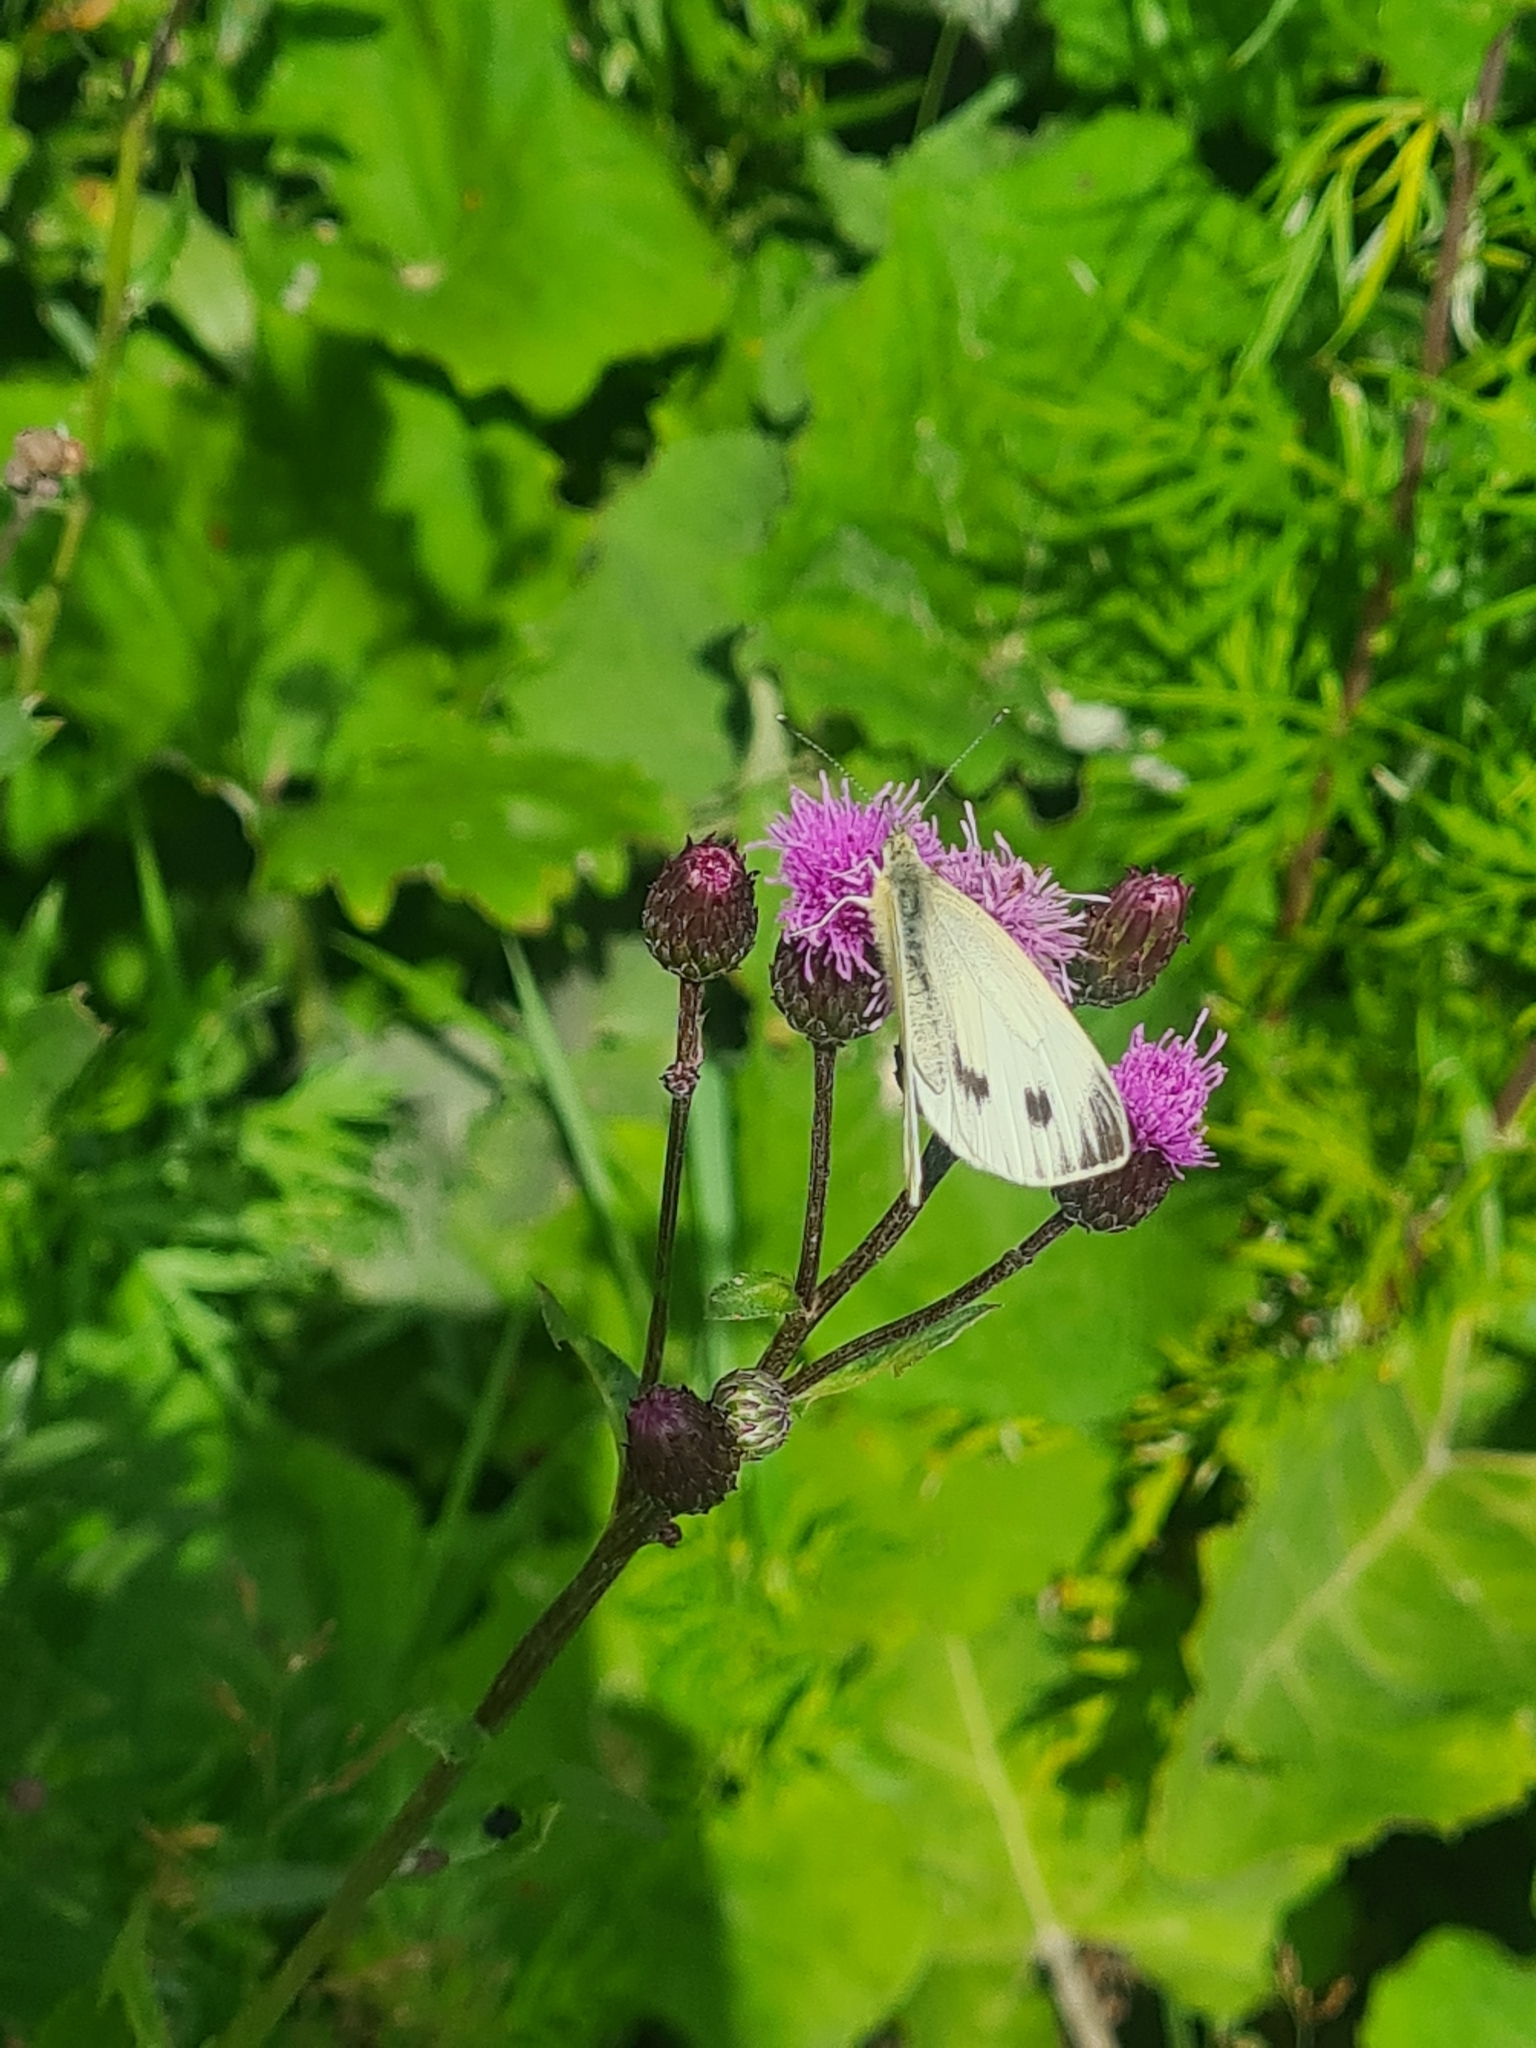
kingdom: Animalia
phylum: Arthropoda
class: Insecta
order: Lepidoptera
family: Pieridae
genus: Pieris
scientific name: Pieris napi
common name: Green-veined white
